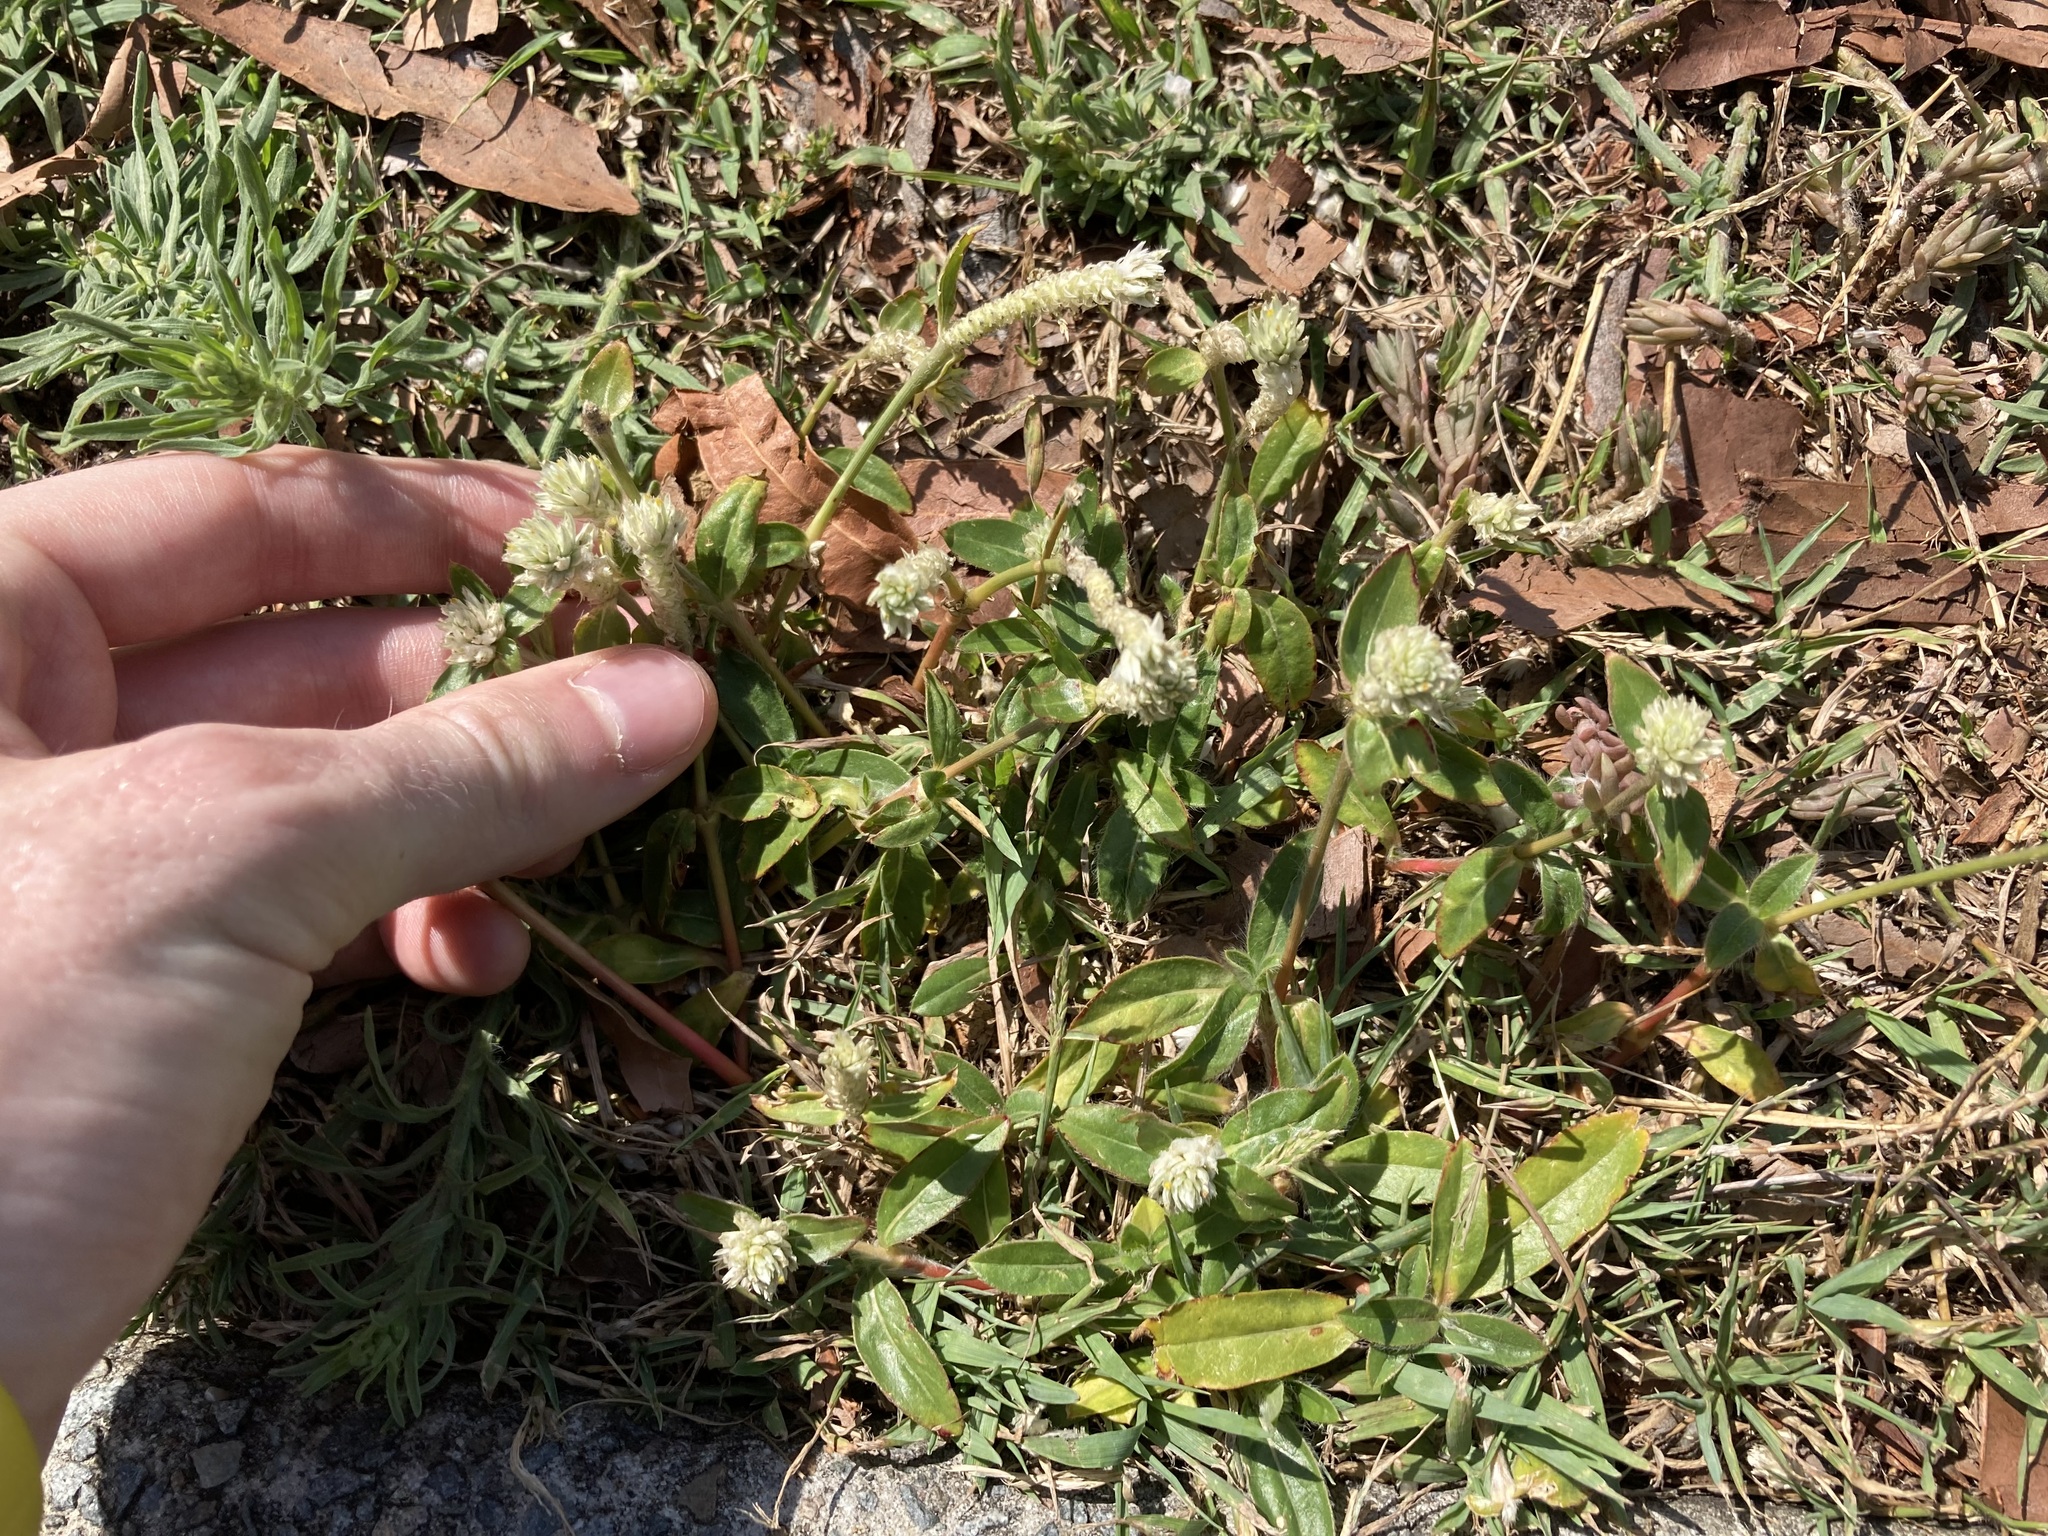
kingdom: Plantae
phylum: Tracheophyta
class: Magnoliopsida
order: Caryophyllales
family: Amaranthaceae
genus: Gomphrena
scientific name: Gomphrena celosioides
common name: Gomphrena-weed
